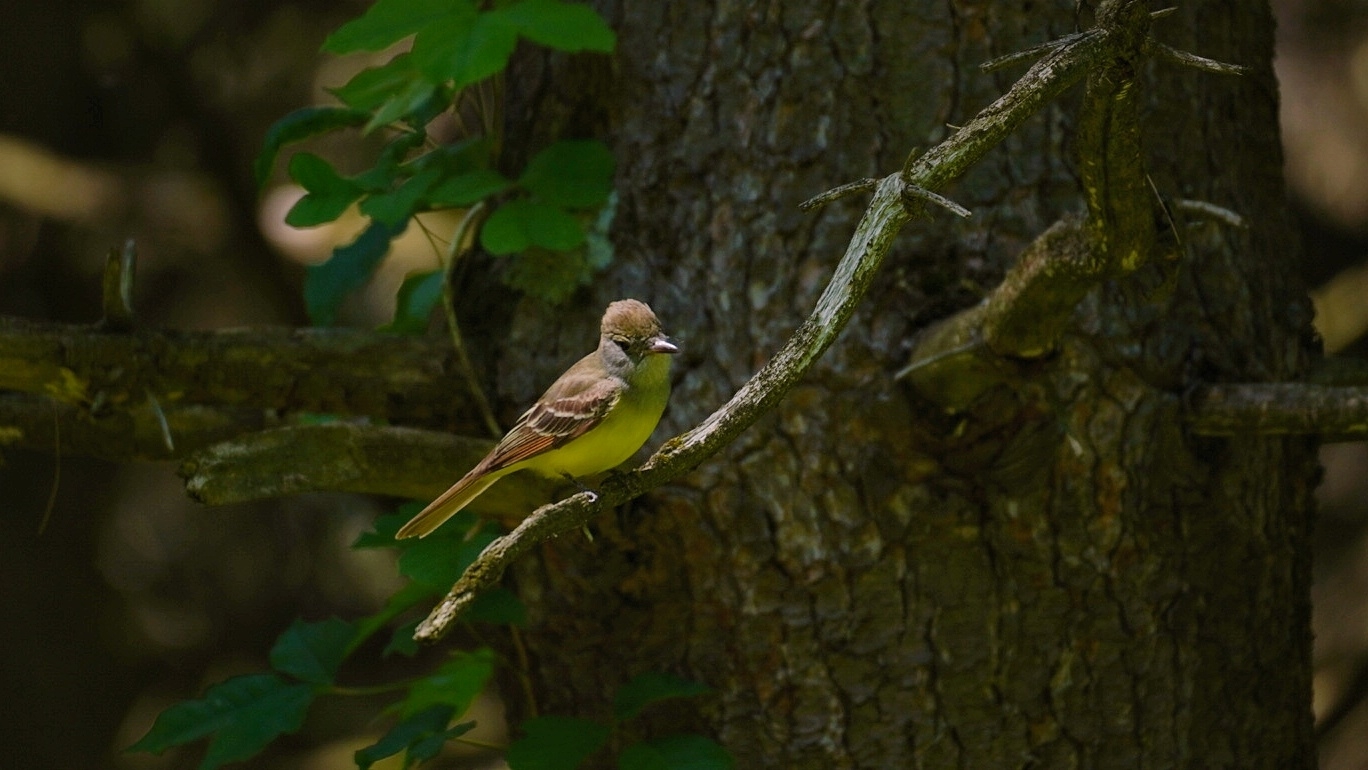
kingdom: Animalia
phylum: Chordata
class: Aves
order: Passeriformes
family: Tyrannidae
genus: Myiarchus
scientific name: Myiarchus crinitus
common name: Great crested flycatcher
